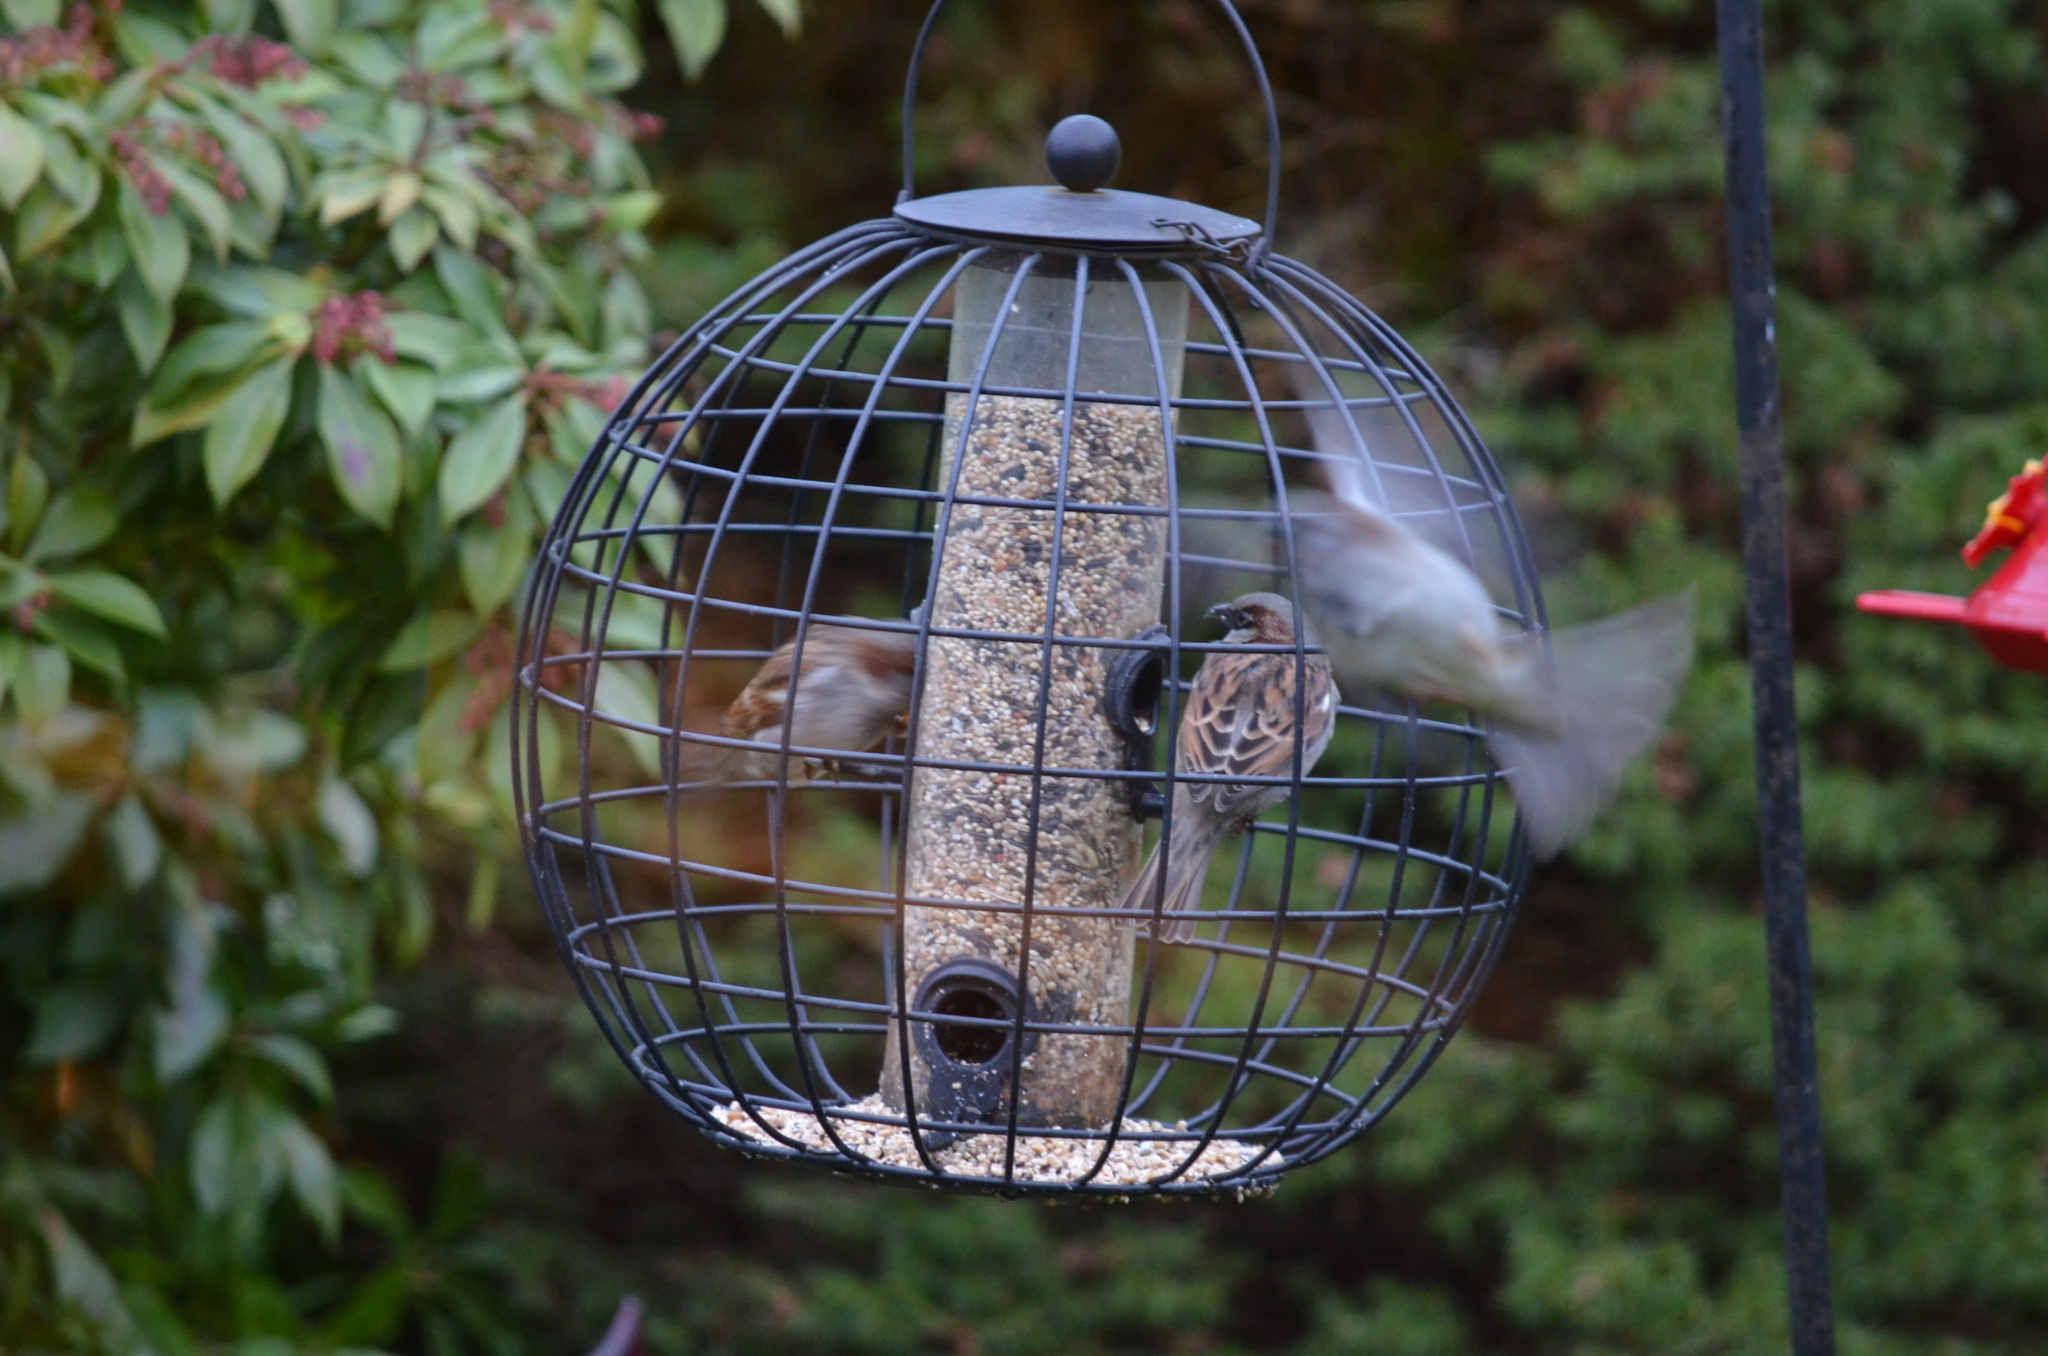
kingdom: Animalia
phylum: Chordata
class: Aves
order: Passeriformes
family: Passeridae
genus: Passer
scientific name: Passer domesticus
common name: House sparrow
